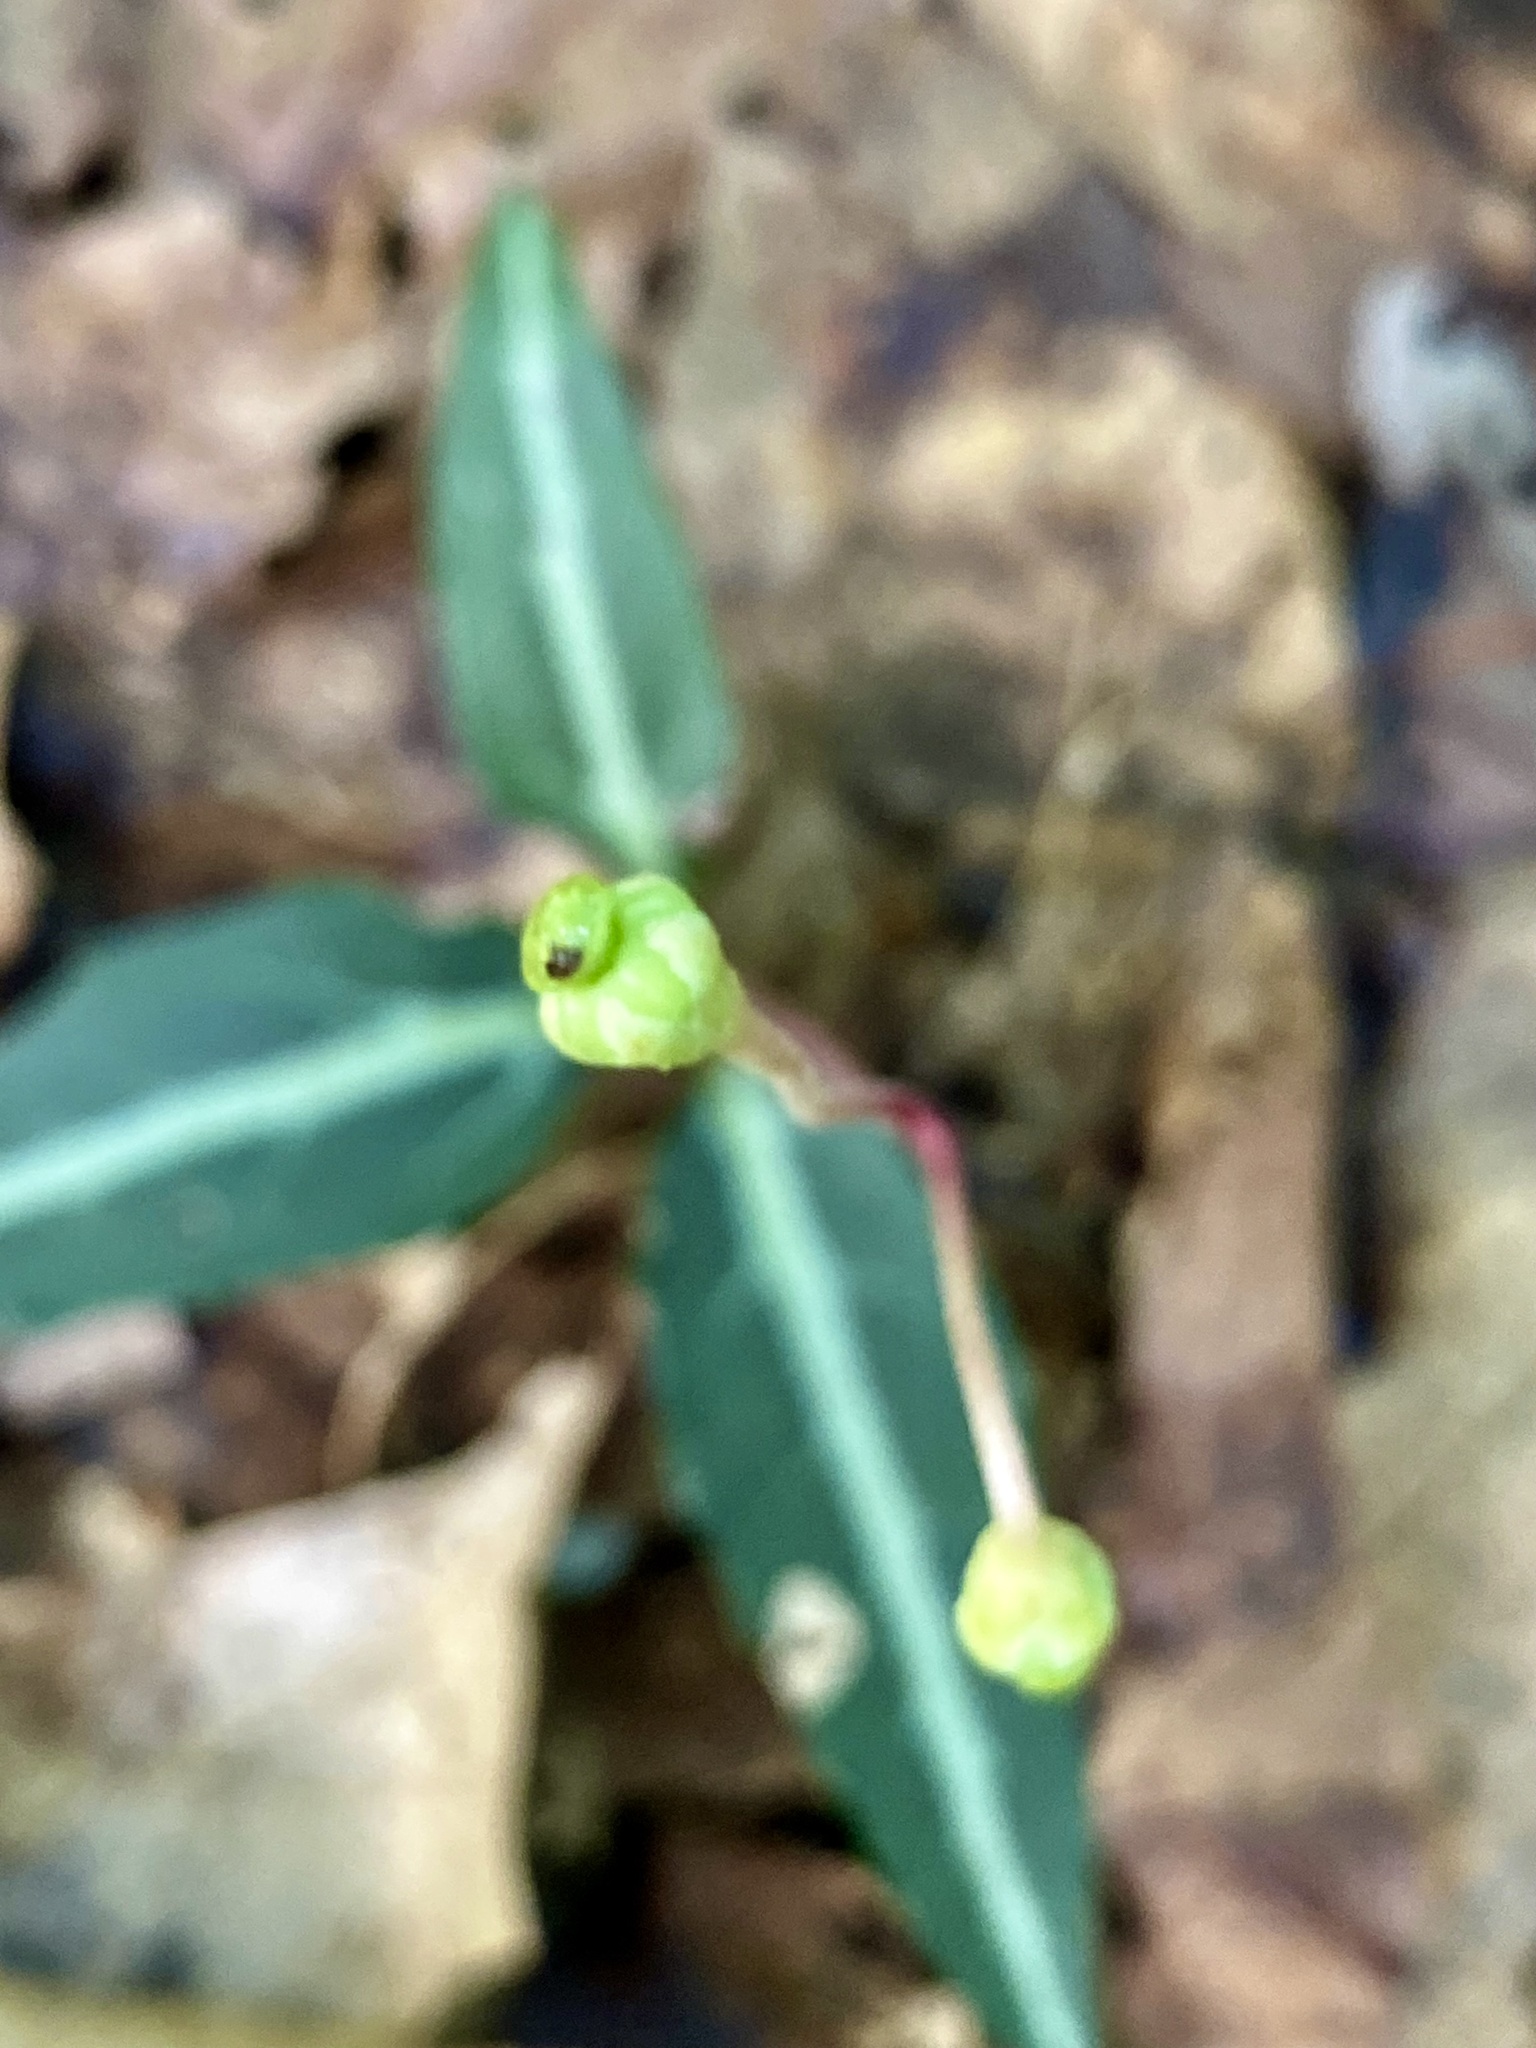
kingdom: Plantae
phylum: Tracheophyta
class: Magnoliopsida
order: Ericales
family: Ericaceae
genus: Chimaphila
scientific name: Chimaphila maculata
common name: Spotted pipsissewa
